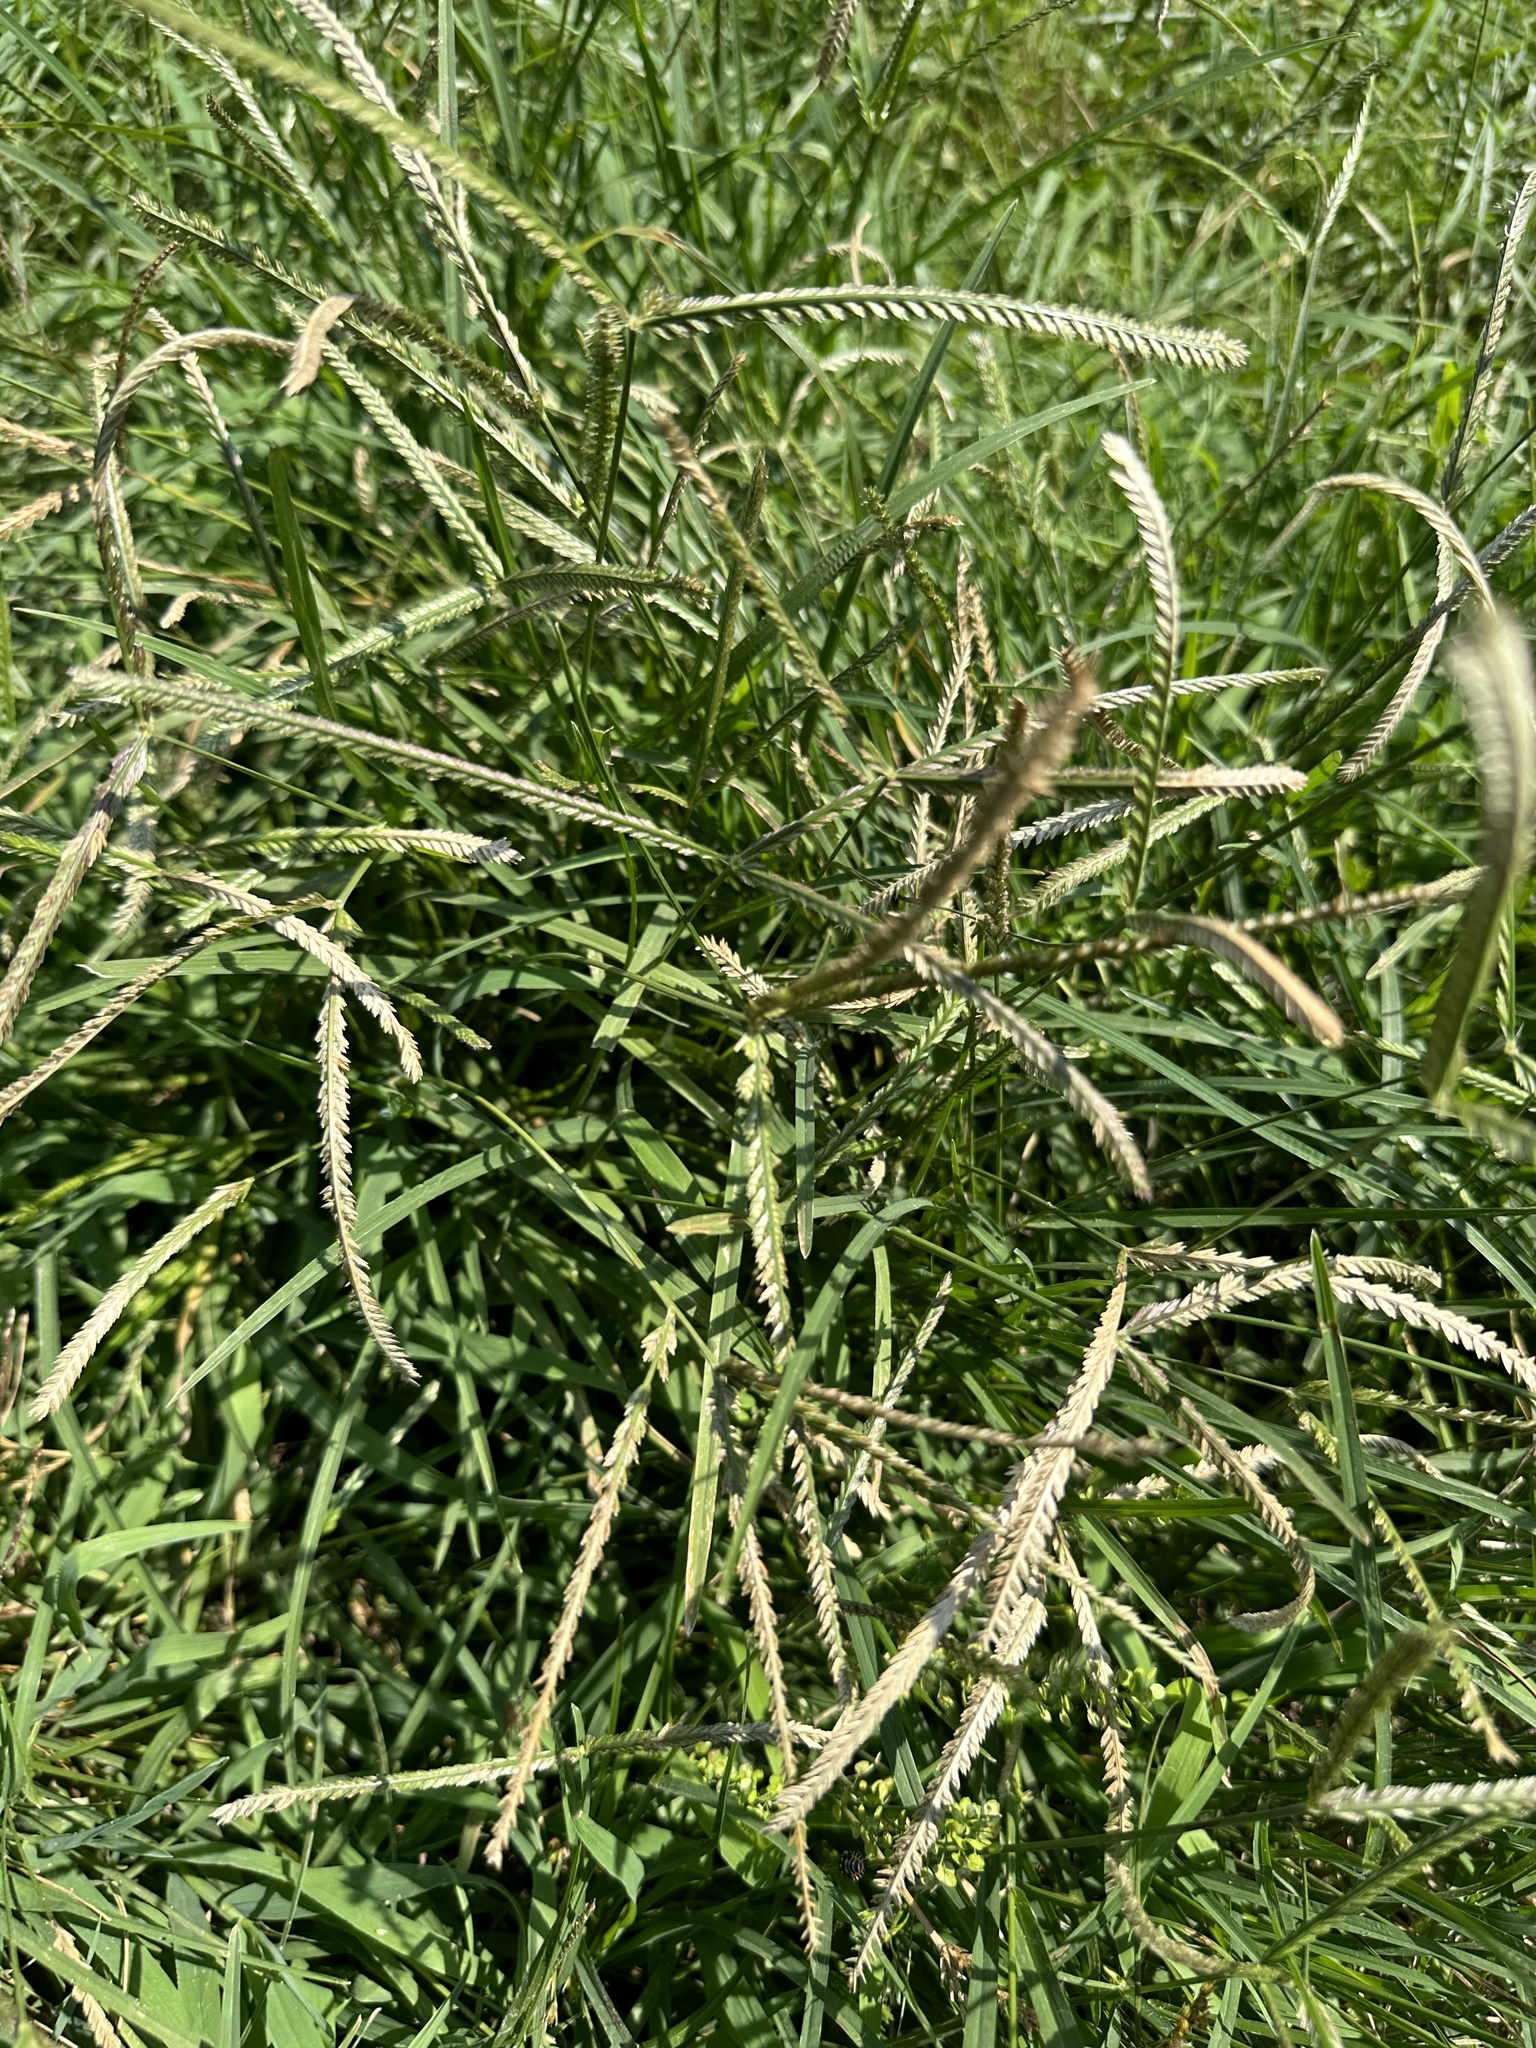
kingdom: Plantae
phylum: Tracheophyta
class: Liliopsida
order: Poales
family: Poaceae
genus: Eleusine
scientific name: Eleusine indica
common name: Yard-grass
